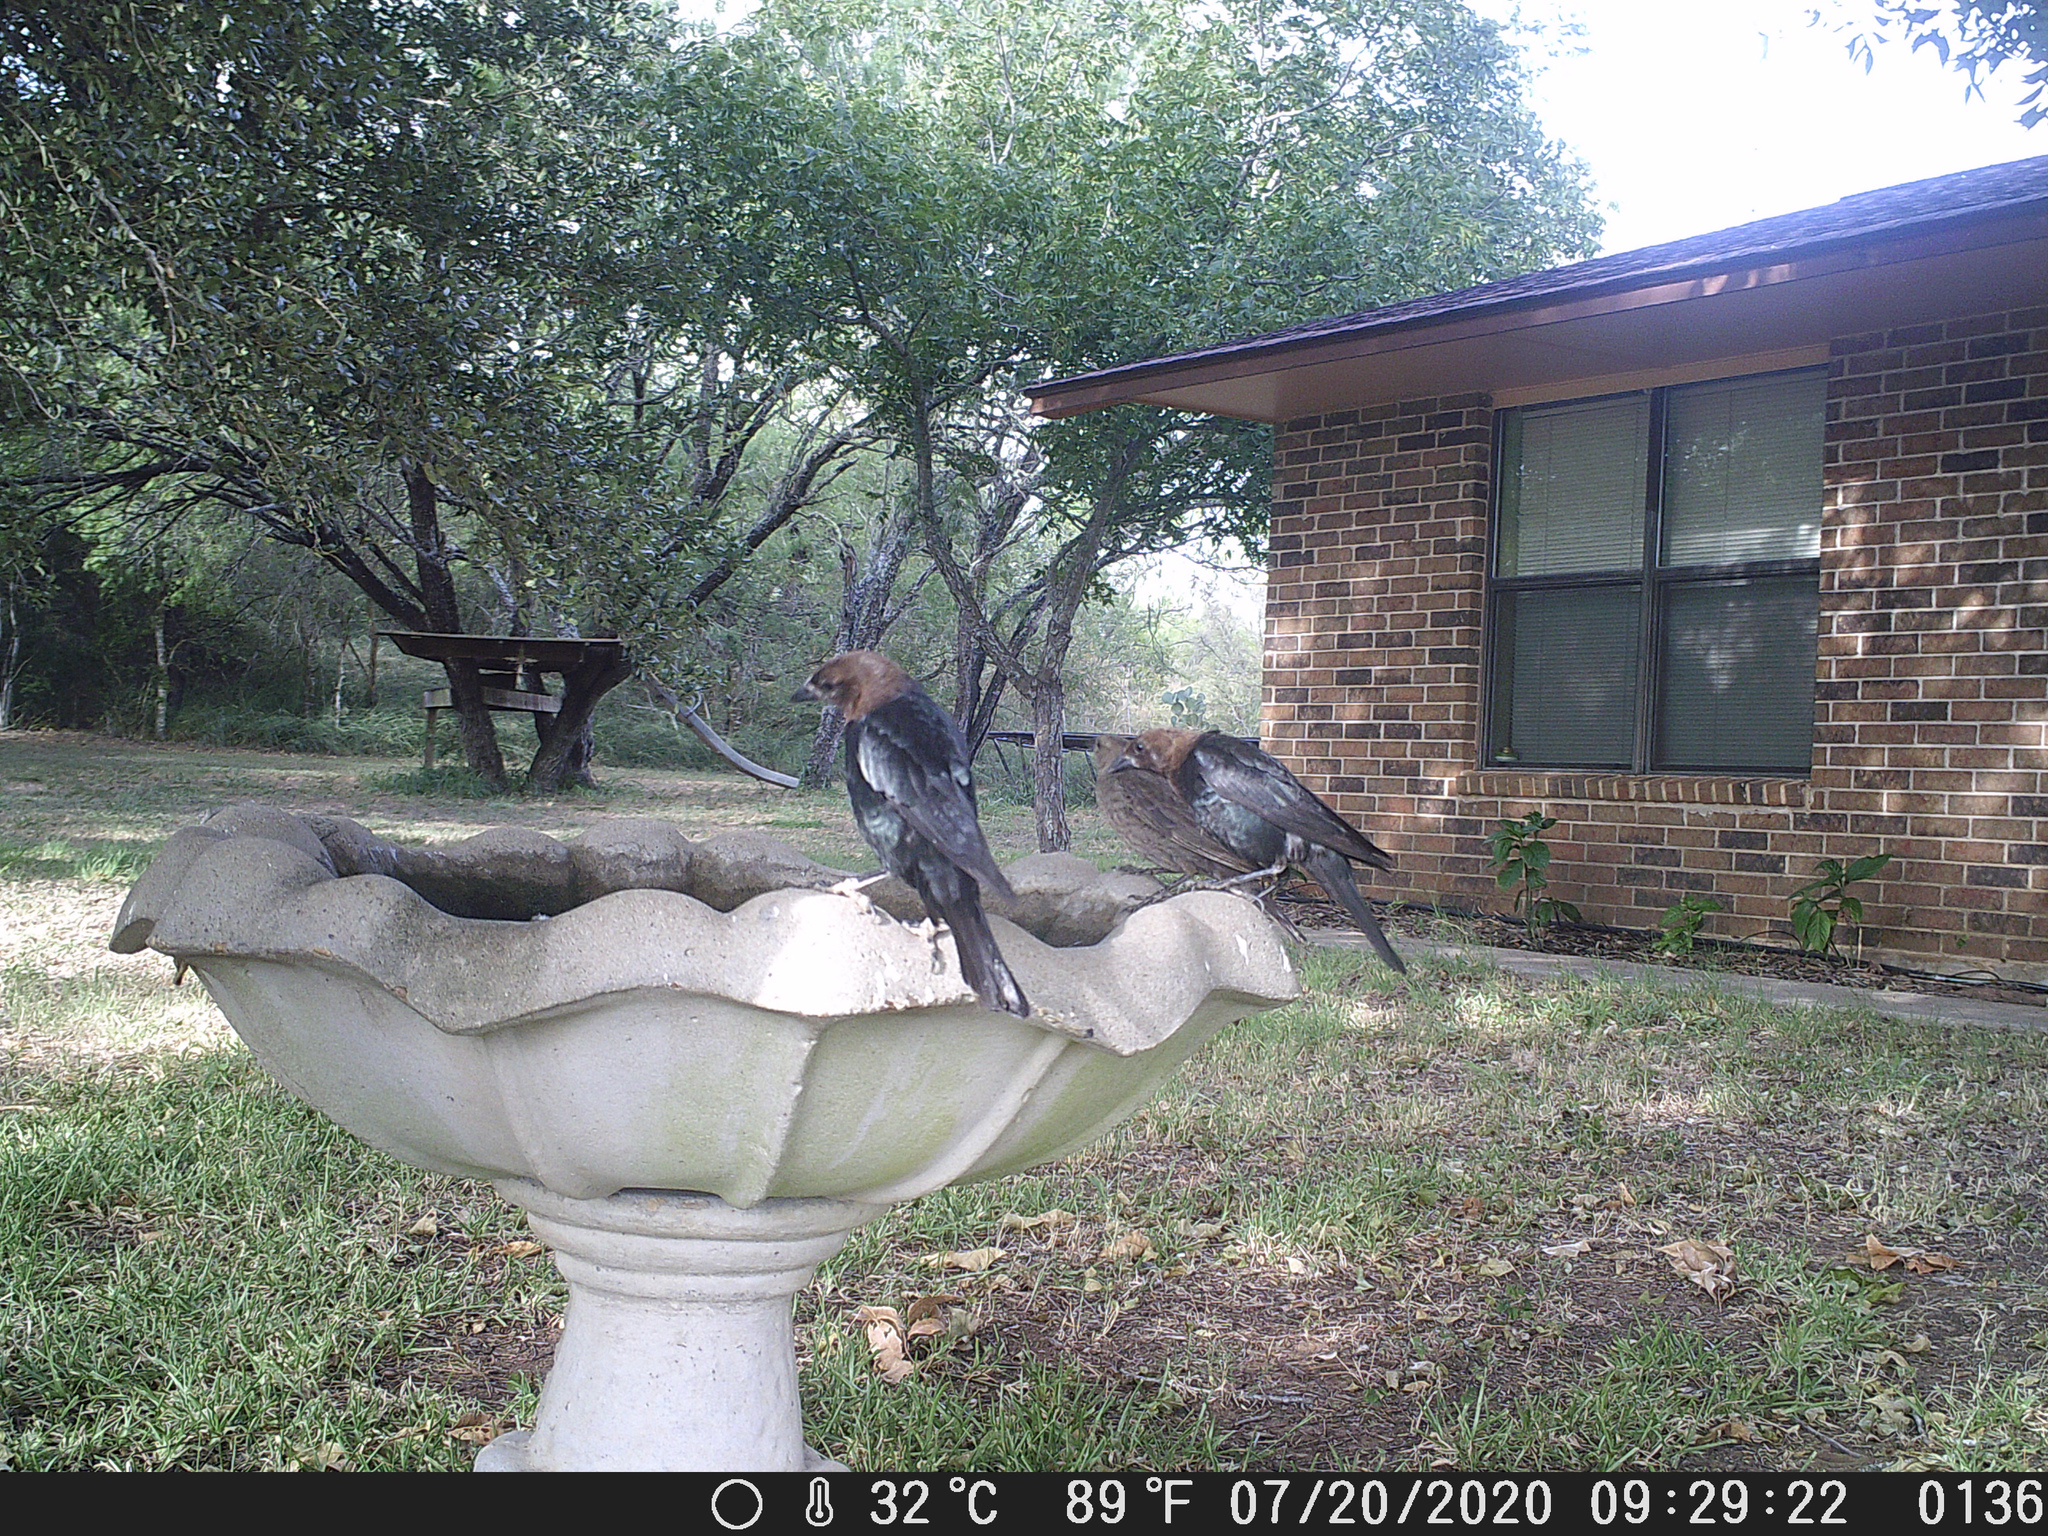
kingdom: Animalia
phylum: Chordata
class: Aves
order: Passeriformes
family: Icteridae
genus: Molothrus
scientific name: Molothrus ater
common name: Brown-headed cowbird
